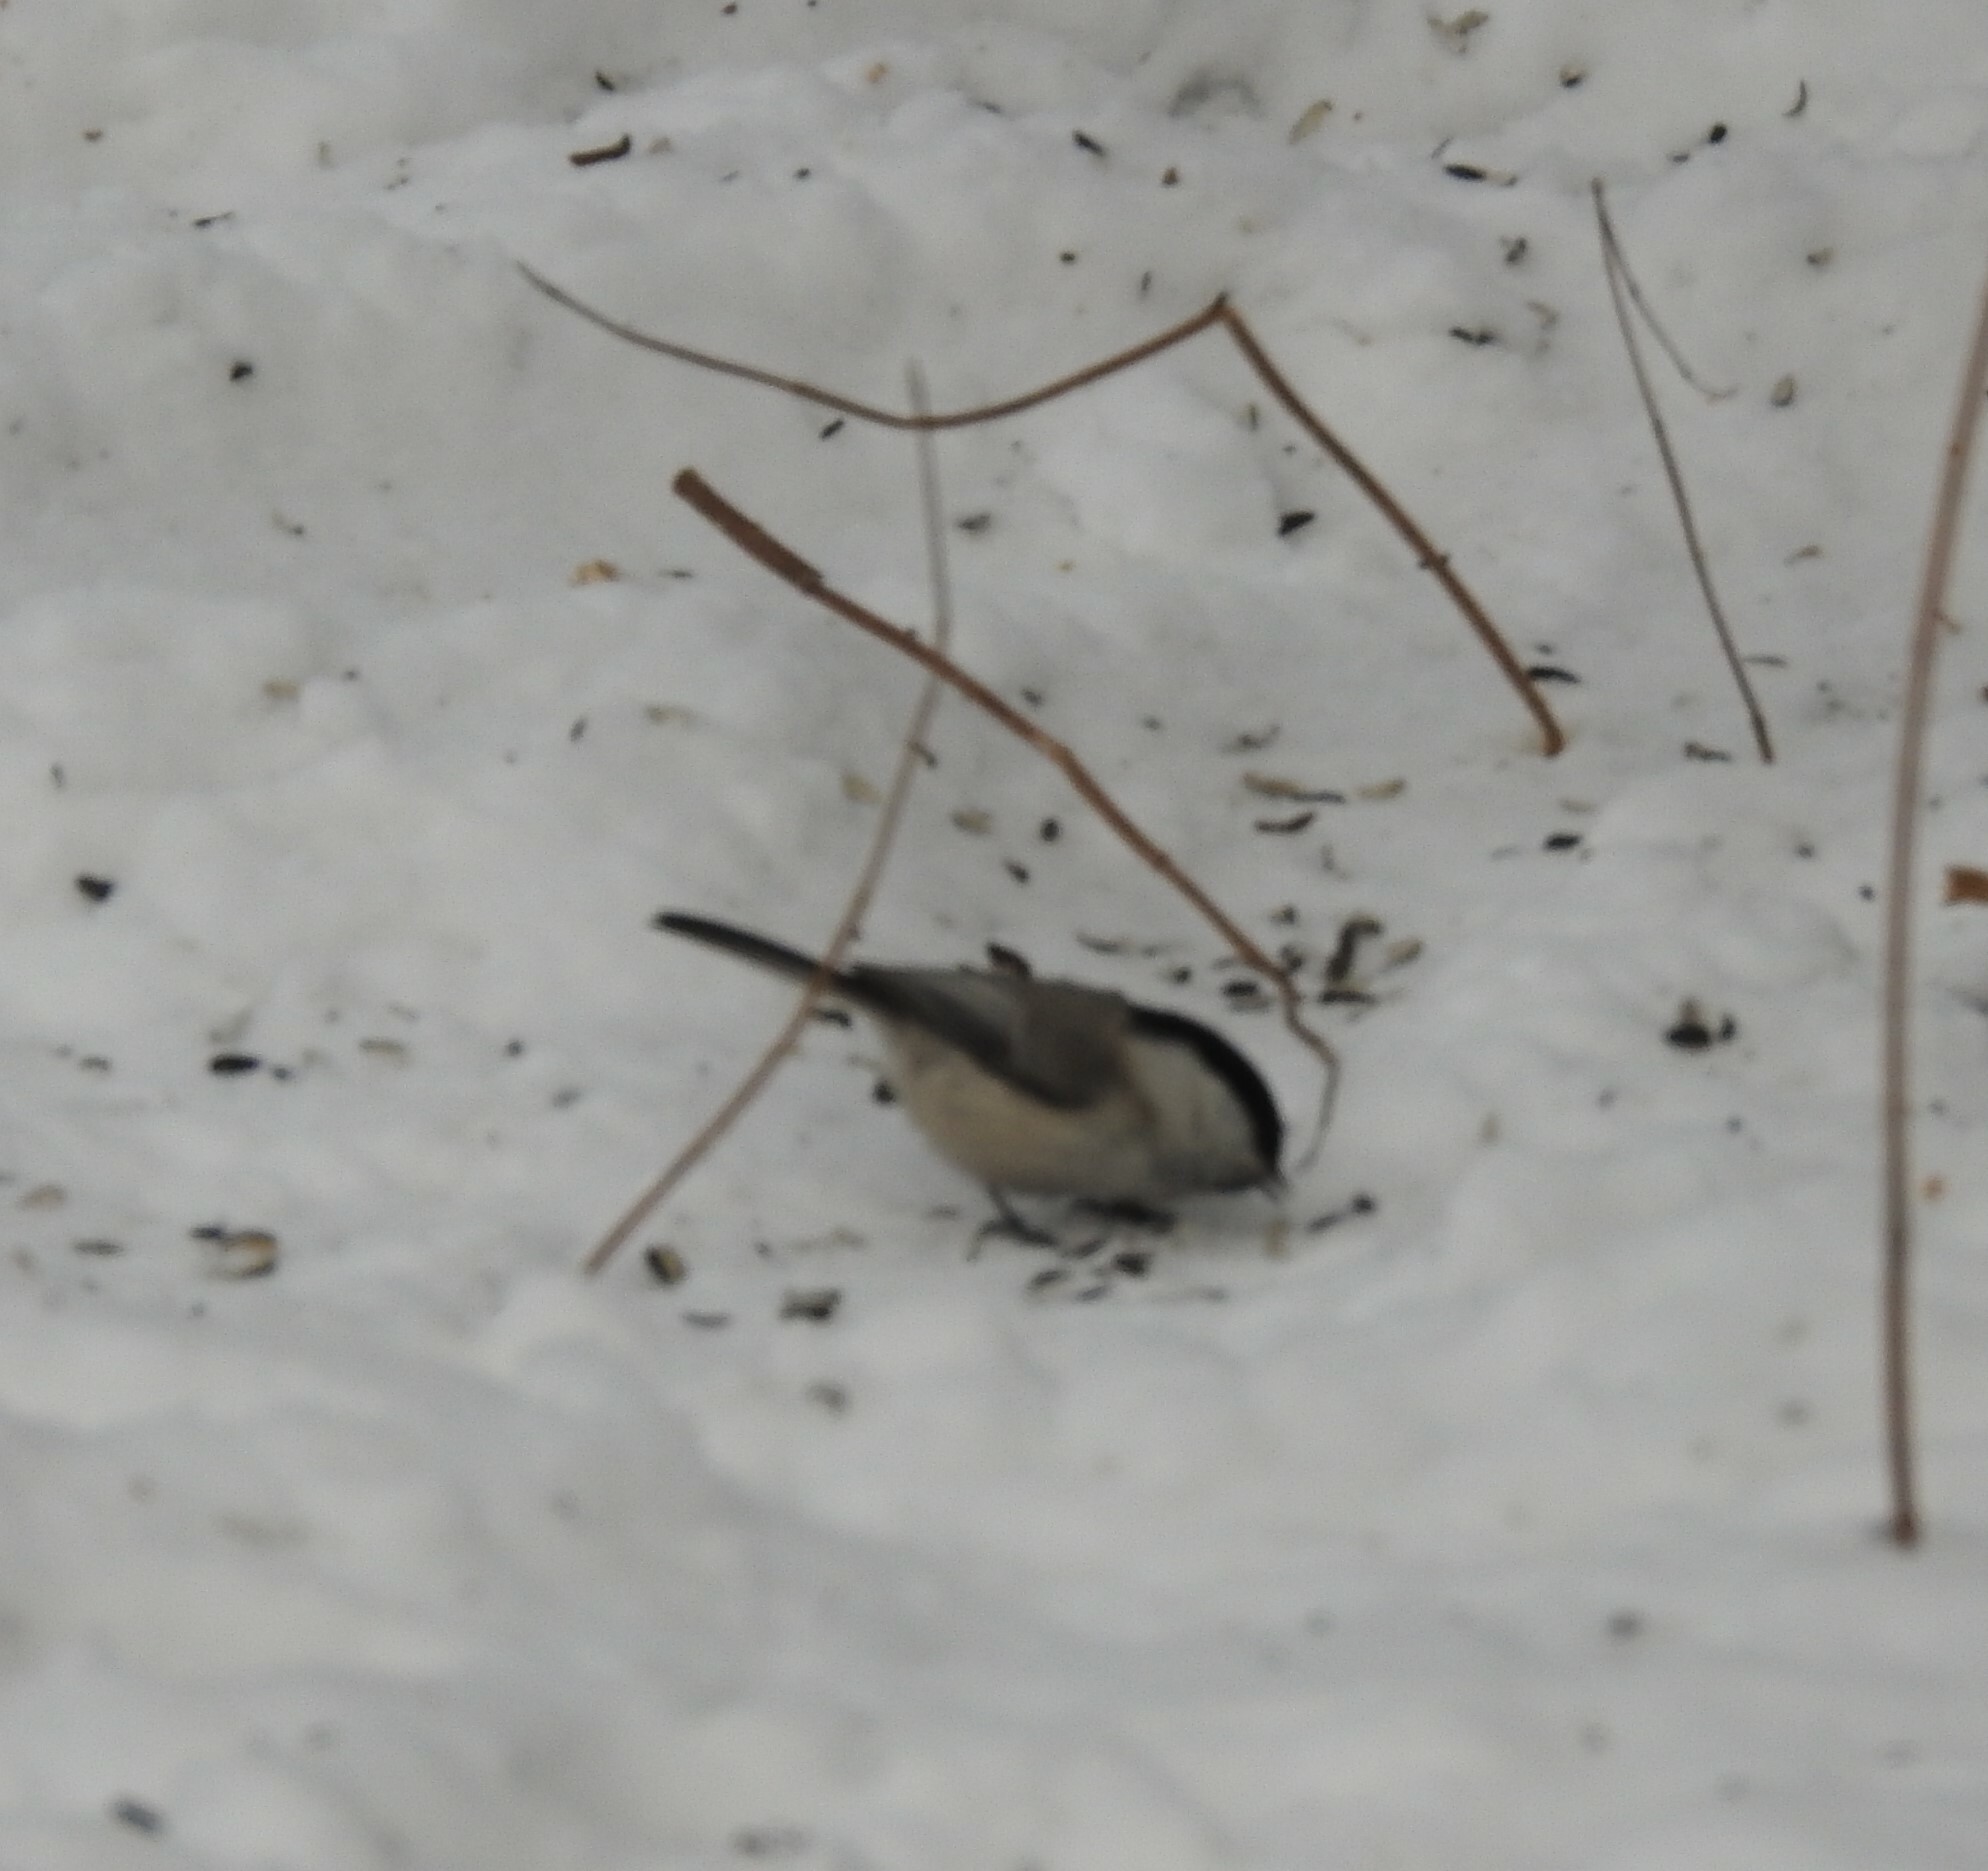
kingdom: Animalia
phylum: Chordata
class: Aves
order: Passeriformes
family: Paridae
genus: Poecile
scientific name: Poecile montanus
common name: Willow tit
